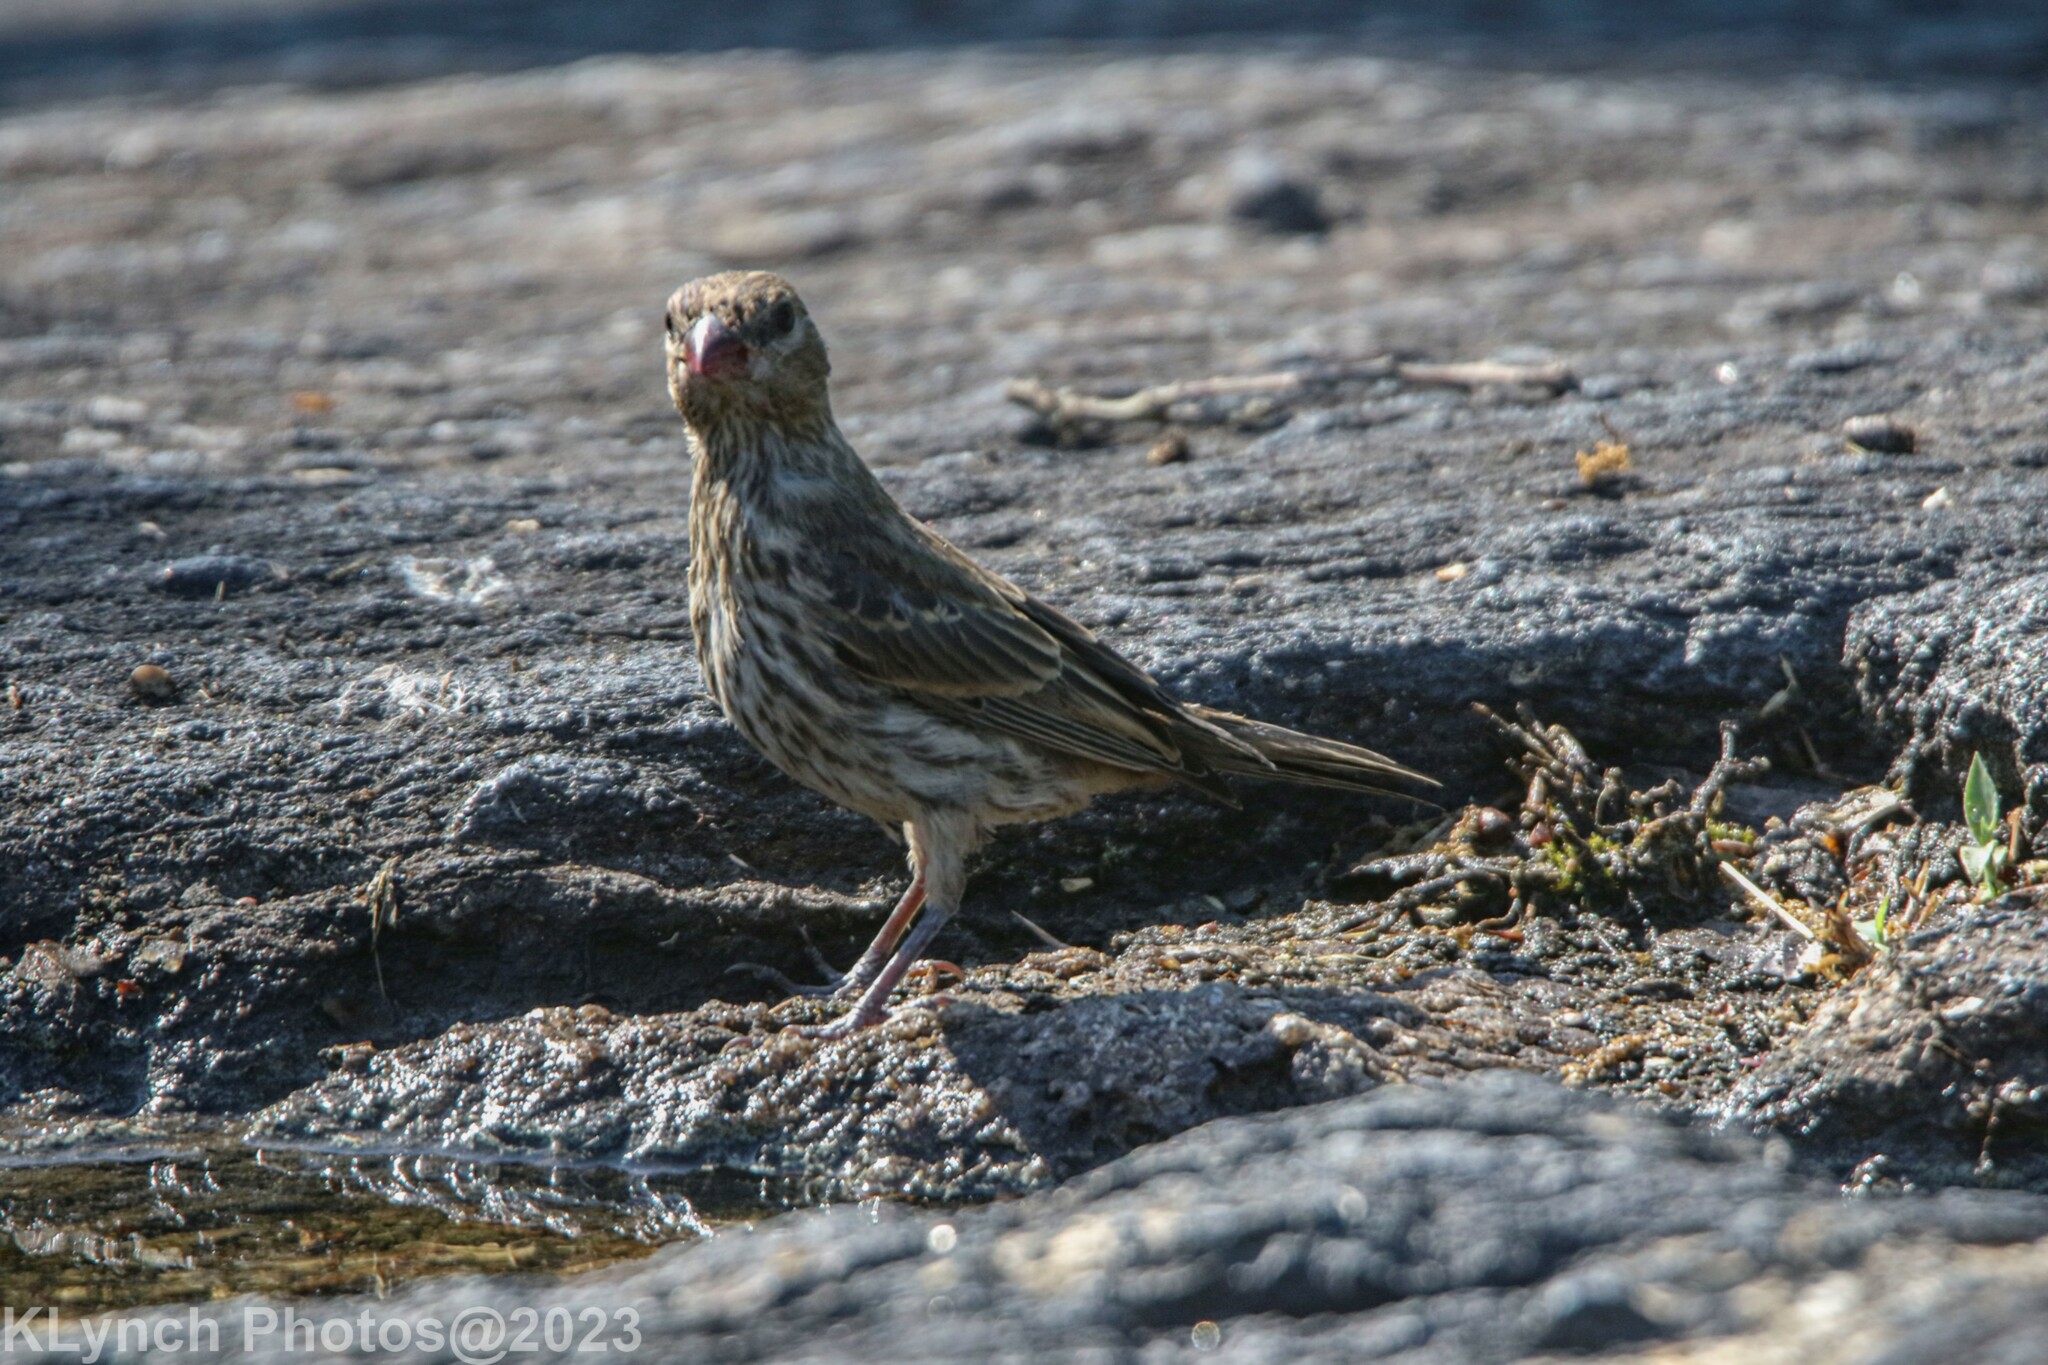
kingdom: Animalia
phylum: Chordata
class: Aves
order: Passeriformes
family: Fringillidae
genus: Haemorhous
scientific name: Haemorhous mexicanus
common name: House finch
